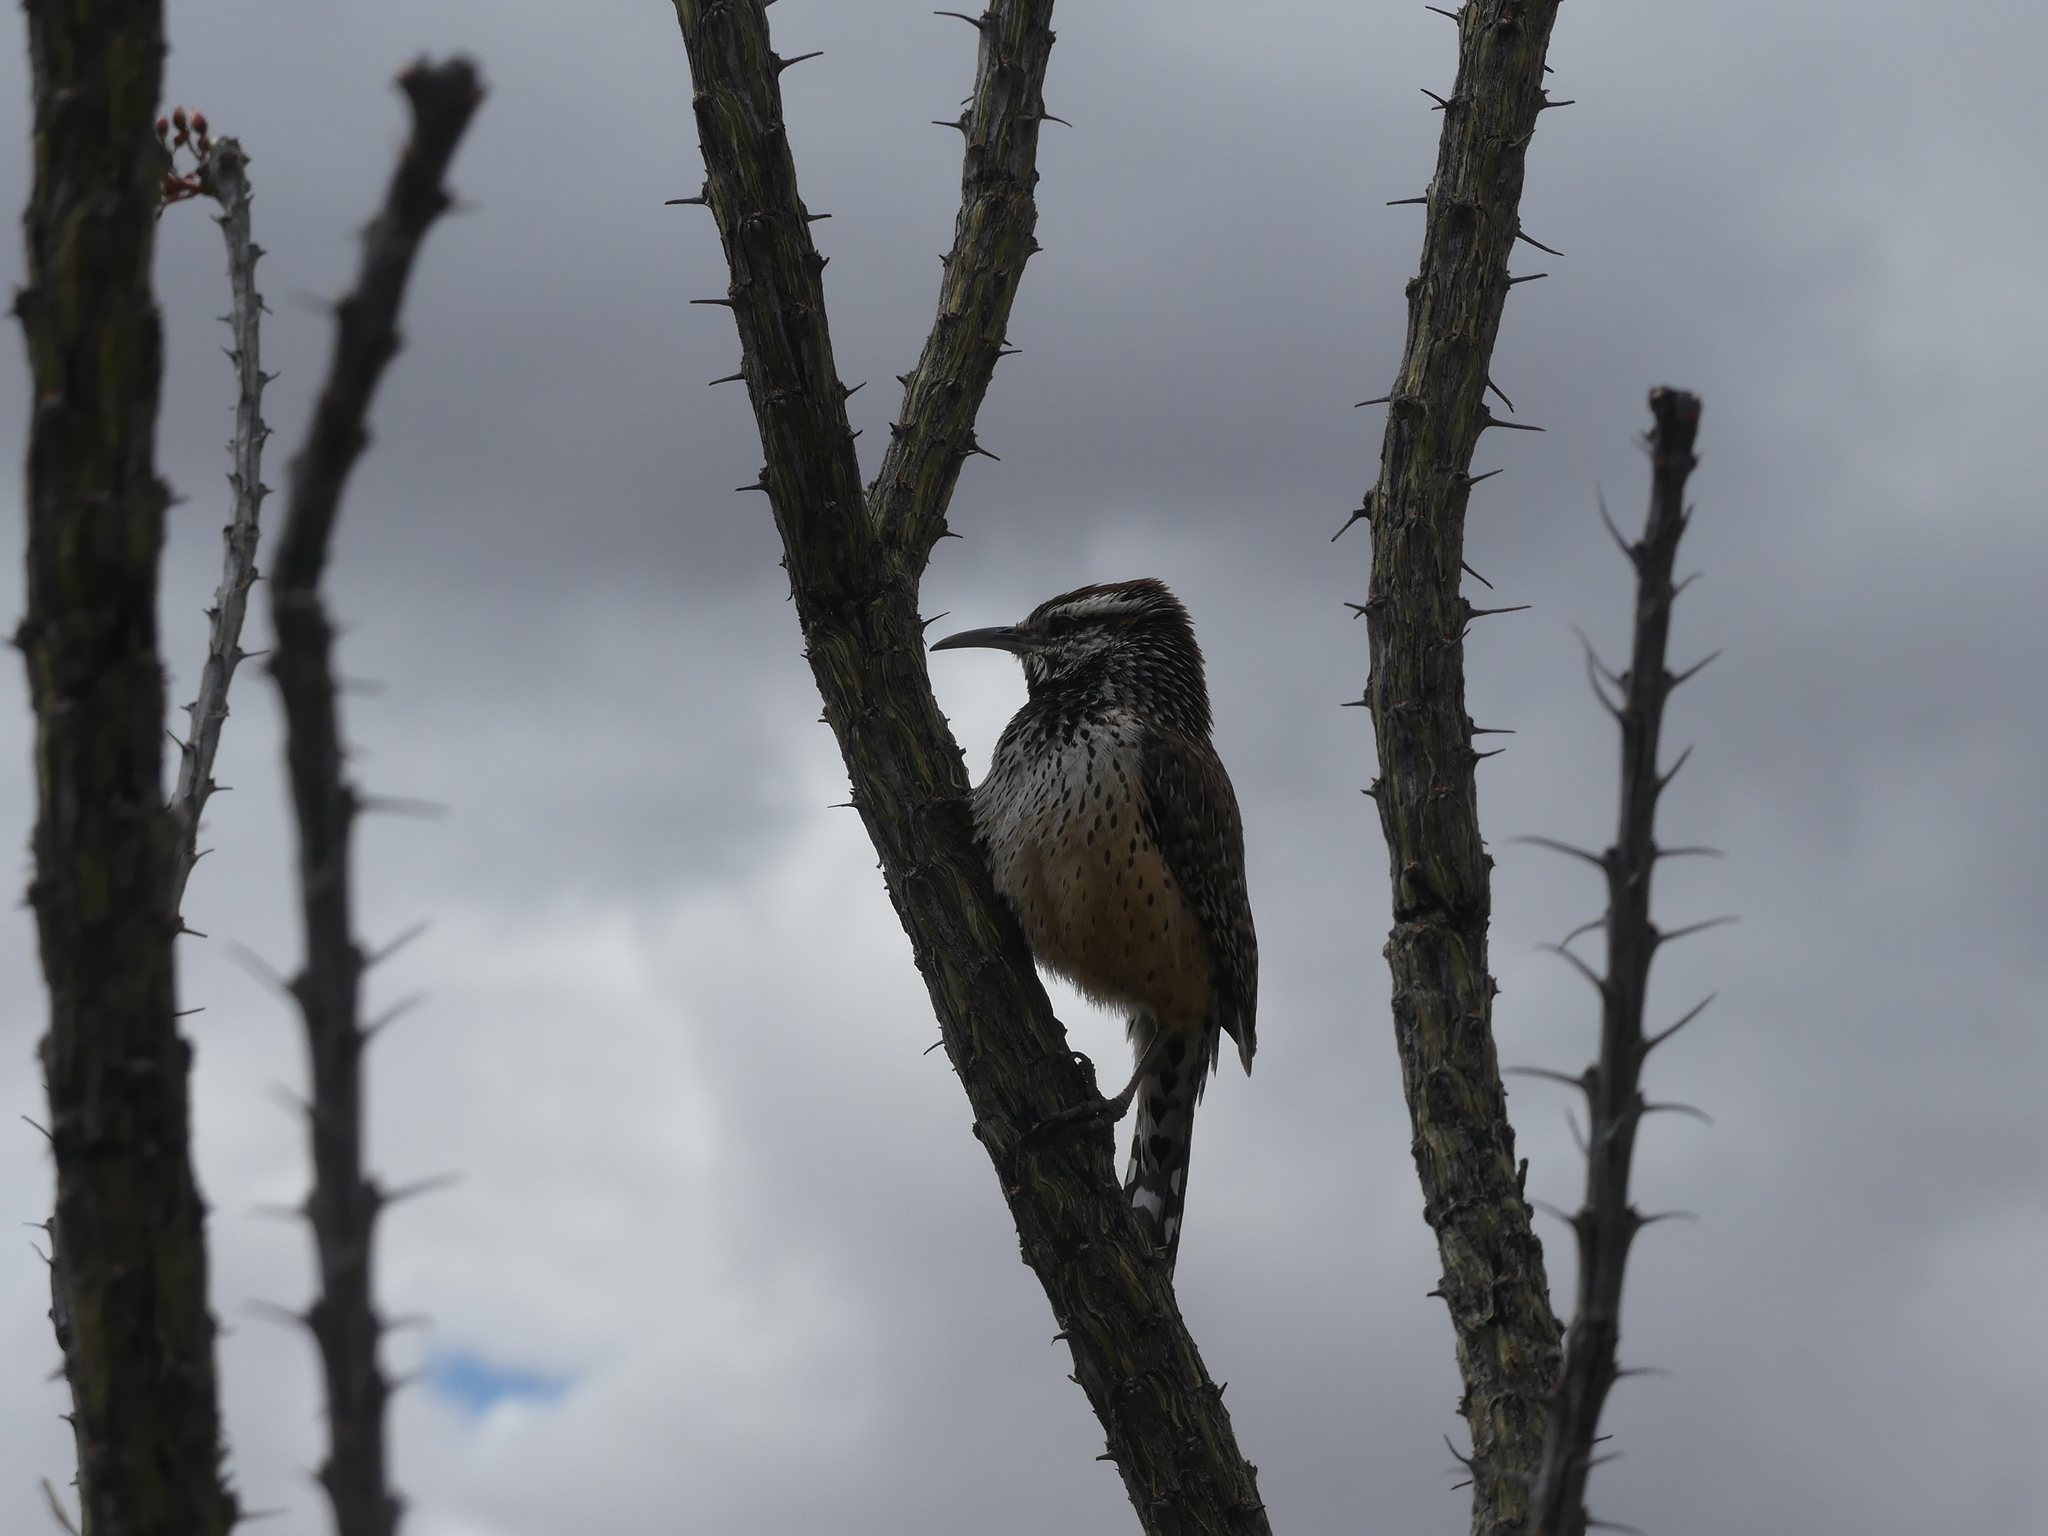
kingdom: Animalia
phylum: Chordata
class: Aves
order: Passeriformes
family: Troglodytidae
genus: Campylorhynchus
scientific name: Campylorhynchus brunneicapillus
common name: Cactus wren
